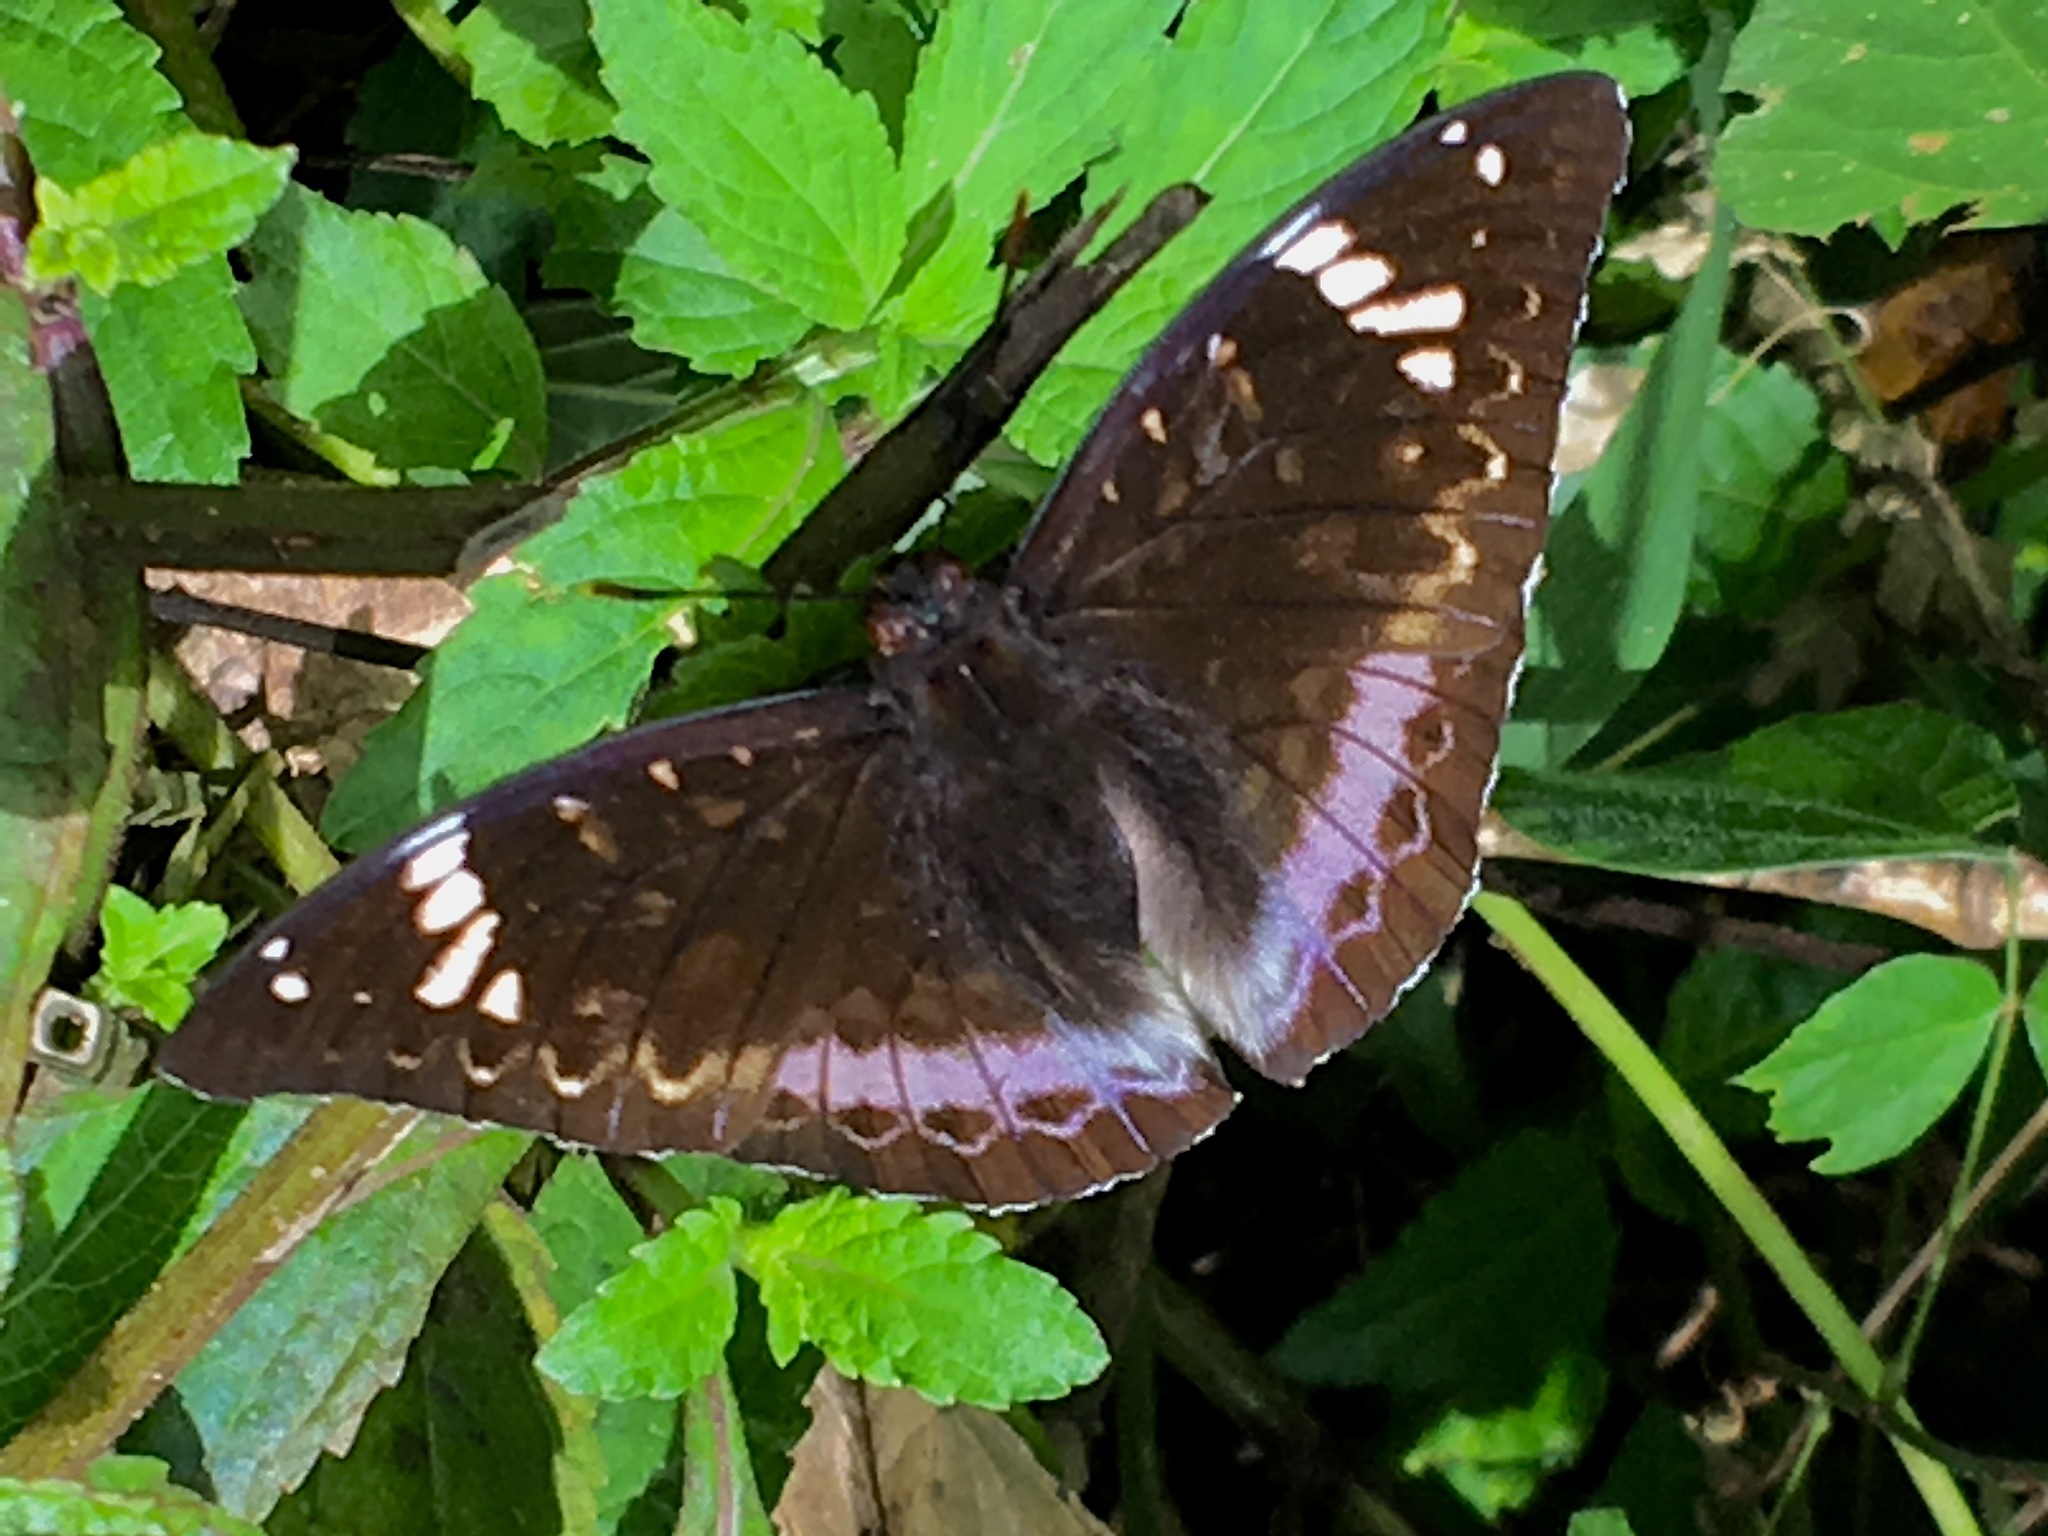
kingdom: Animalia
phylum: Arthropoda
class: Insecta
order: Lepidoptera
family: Nymphalidae
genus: Lexias
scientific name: Lexias aeetes
